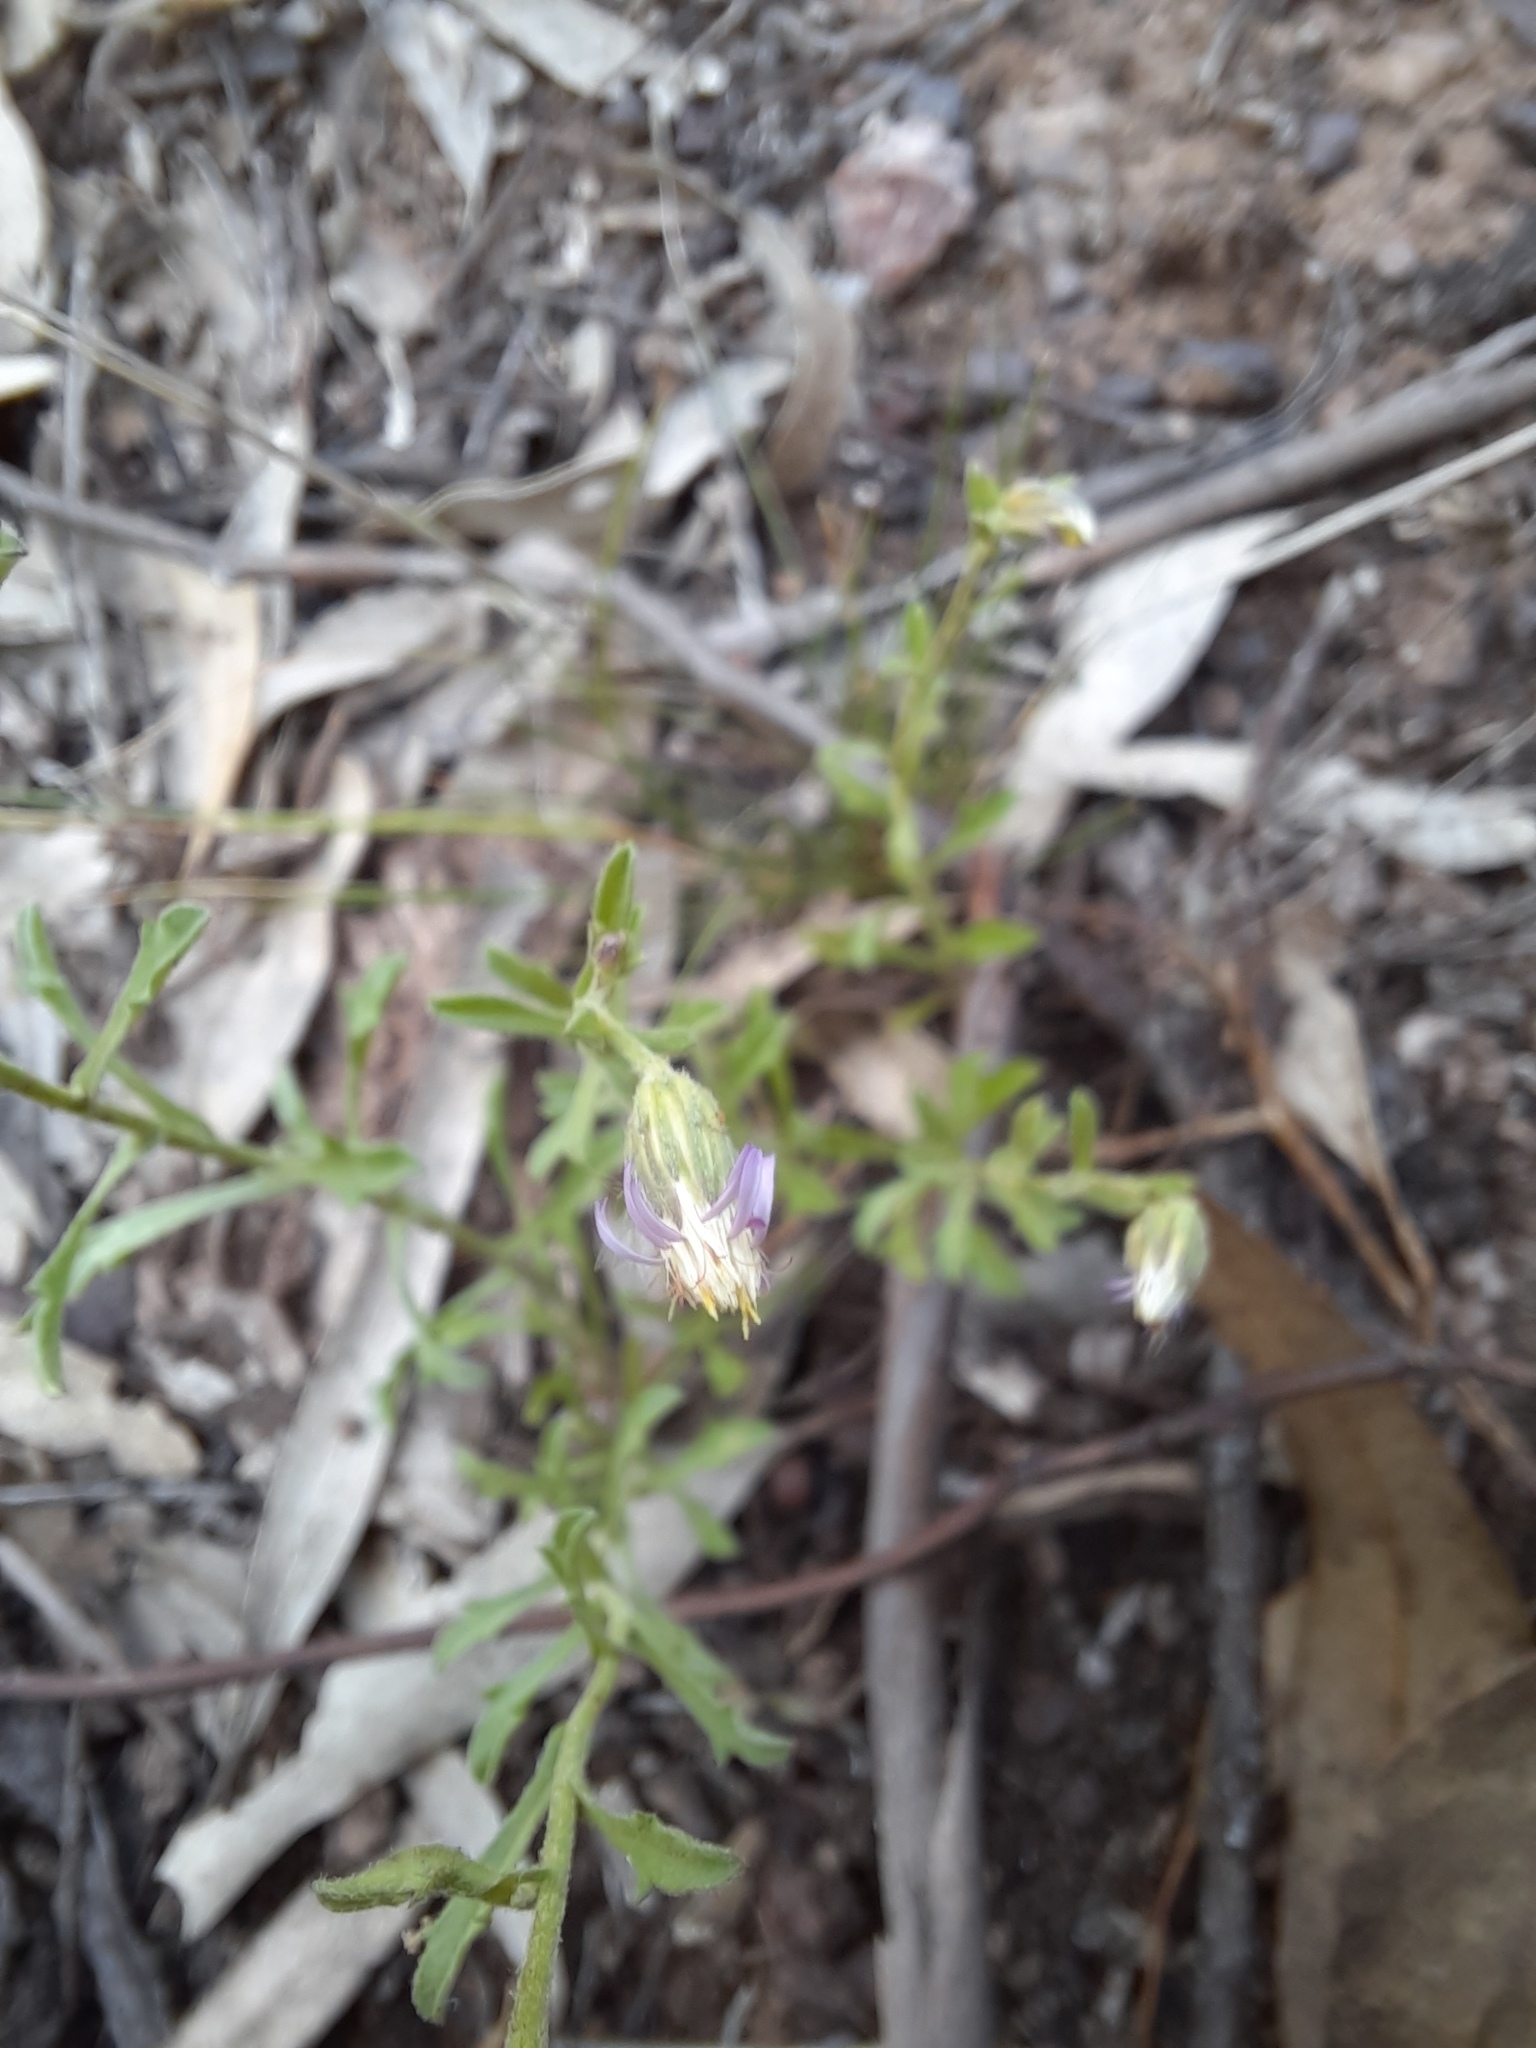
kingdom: Plantae
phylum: Tracheophyta
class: Magnoliopsida
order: Asterales
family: Asteraceae
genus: Vittadinia
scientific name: Vittadinia gracilis
